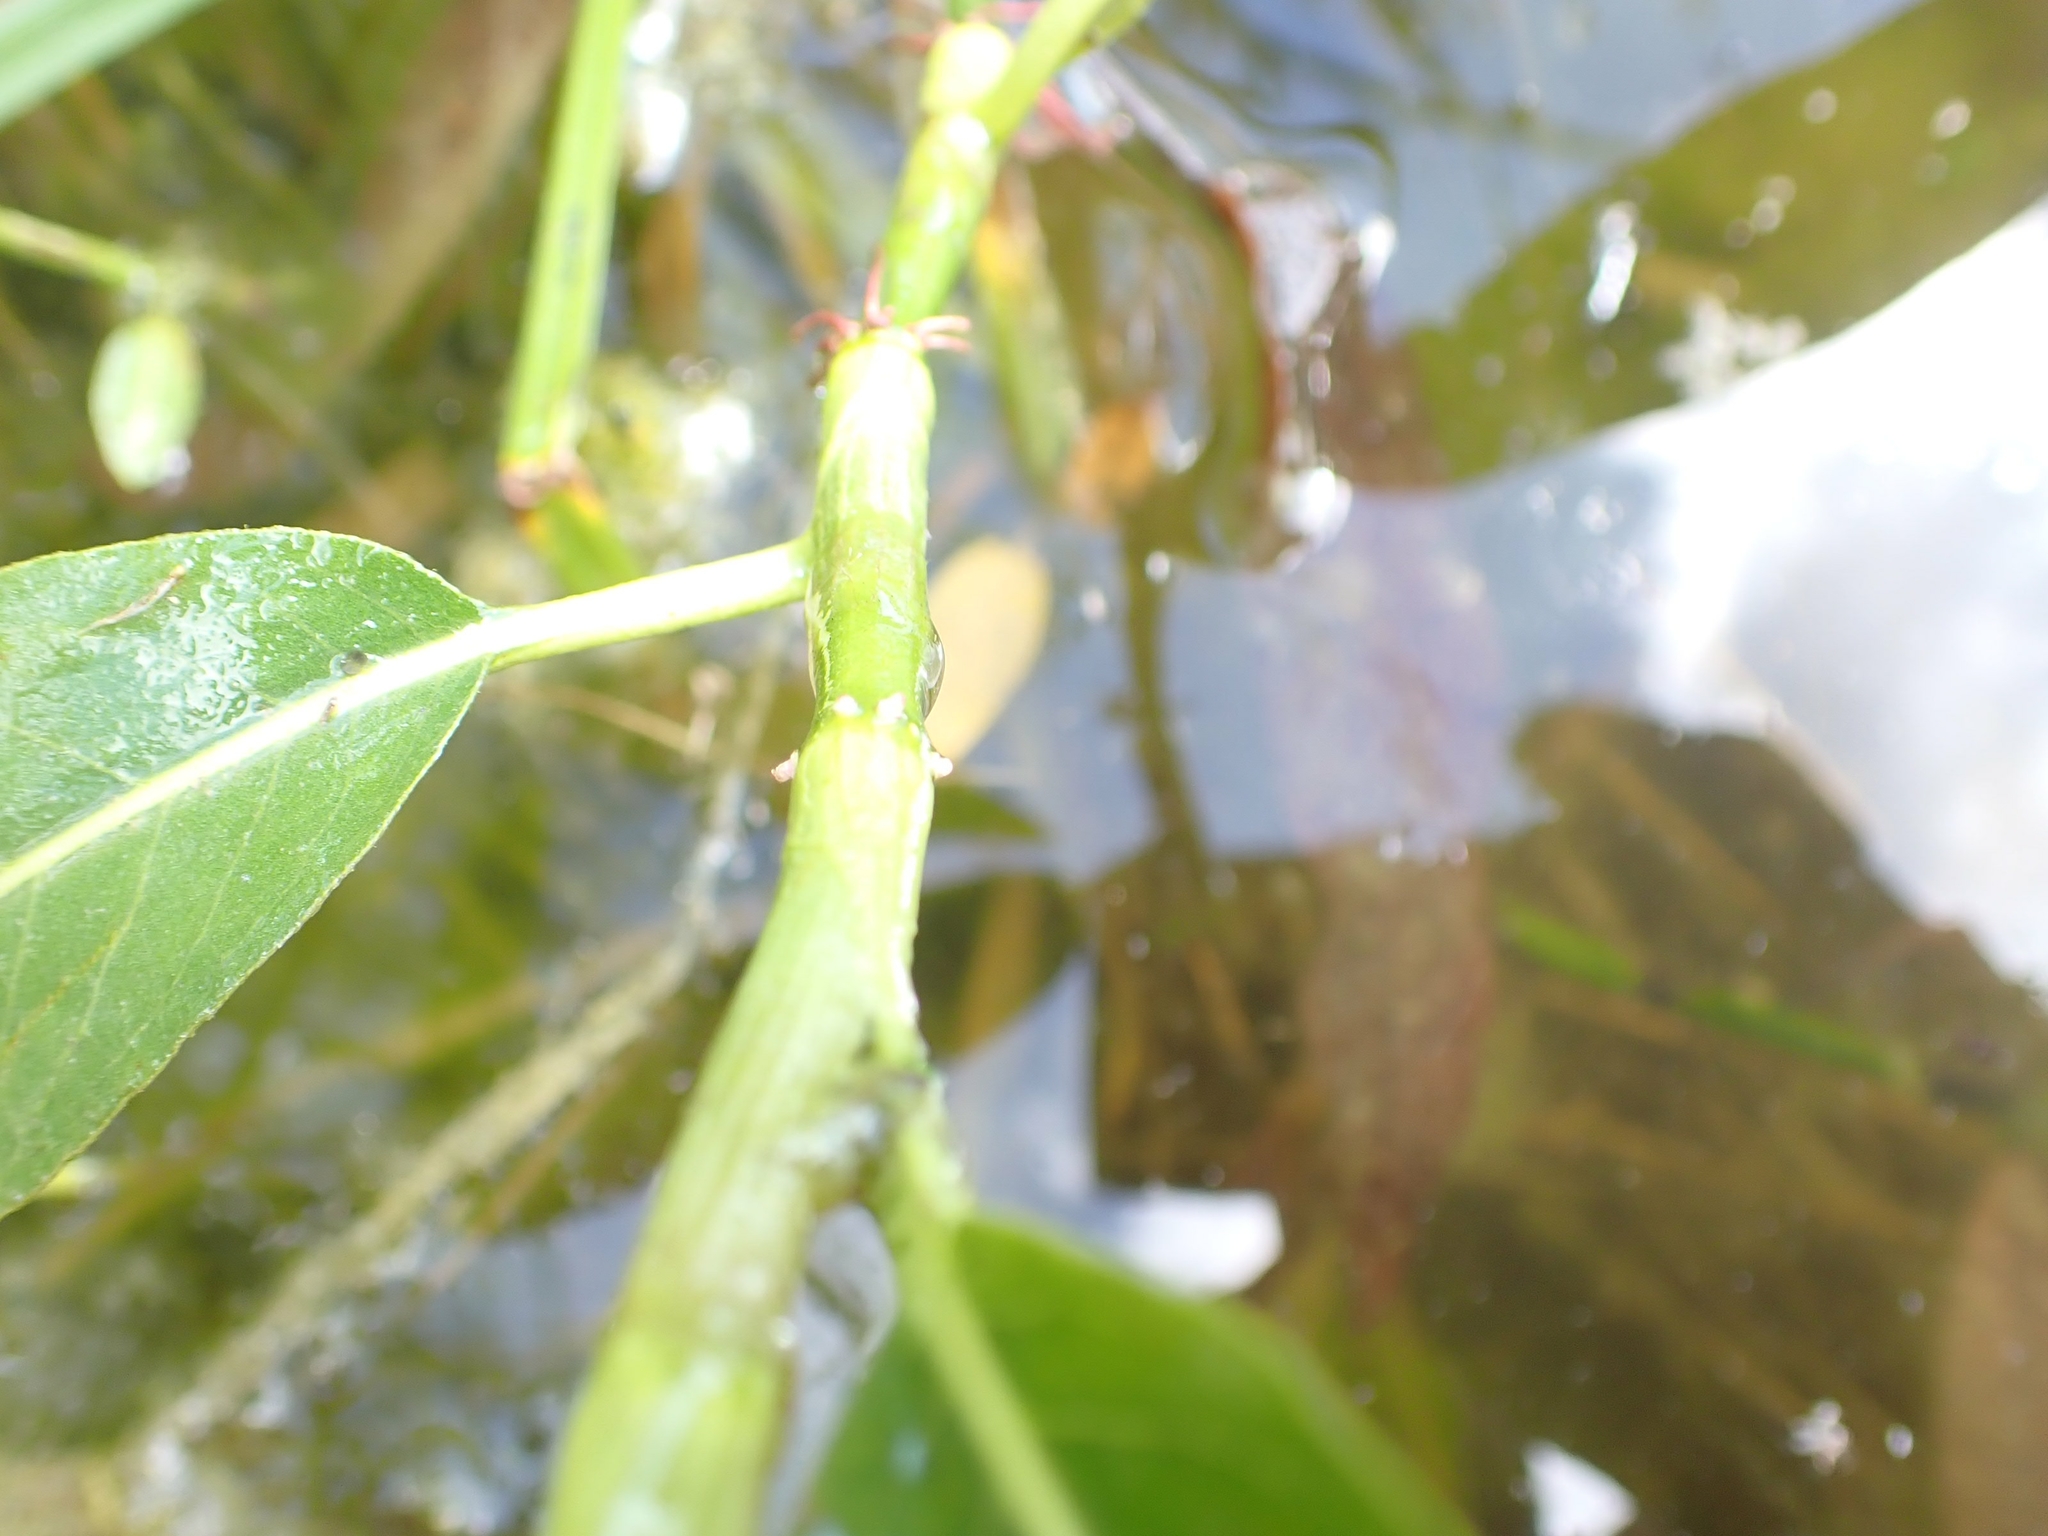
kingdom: Plantae
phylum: Tracheophyta
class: Magnoliopsida
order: Caryophyllales
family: Polygonaceae
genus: Persicaria
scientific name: Persicaria amphibia
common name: Amphibious bistort
